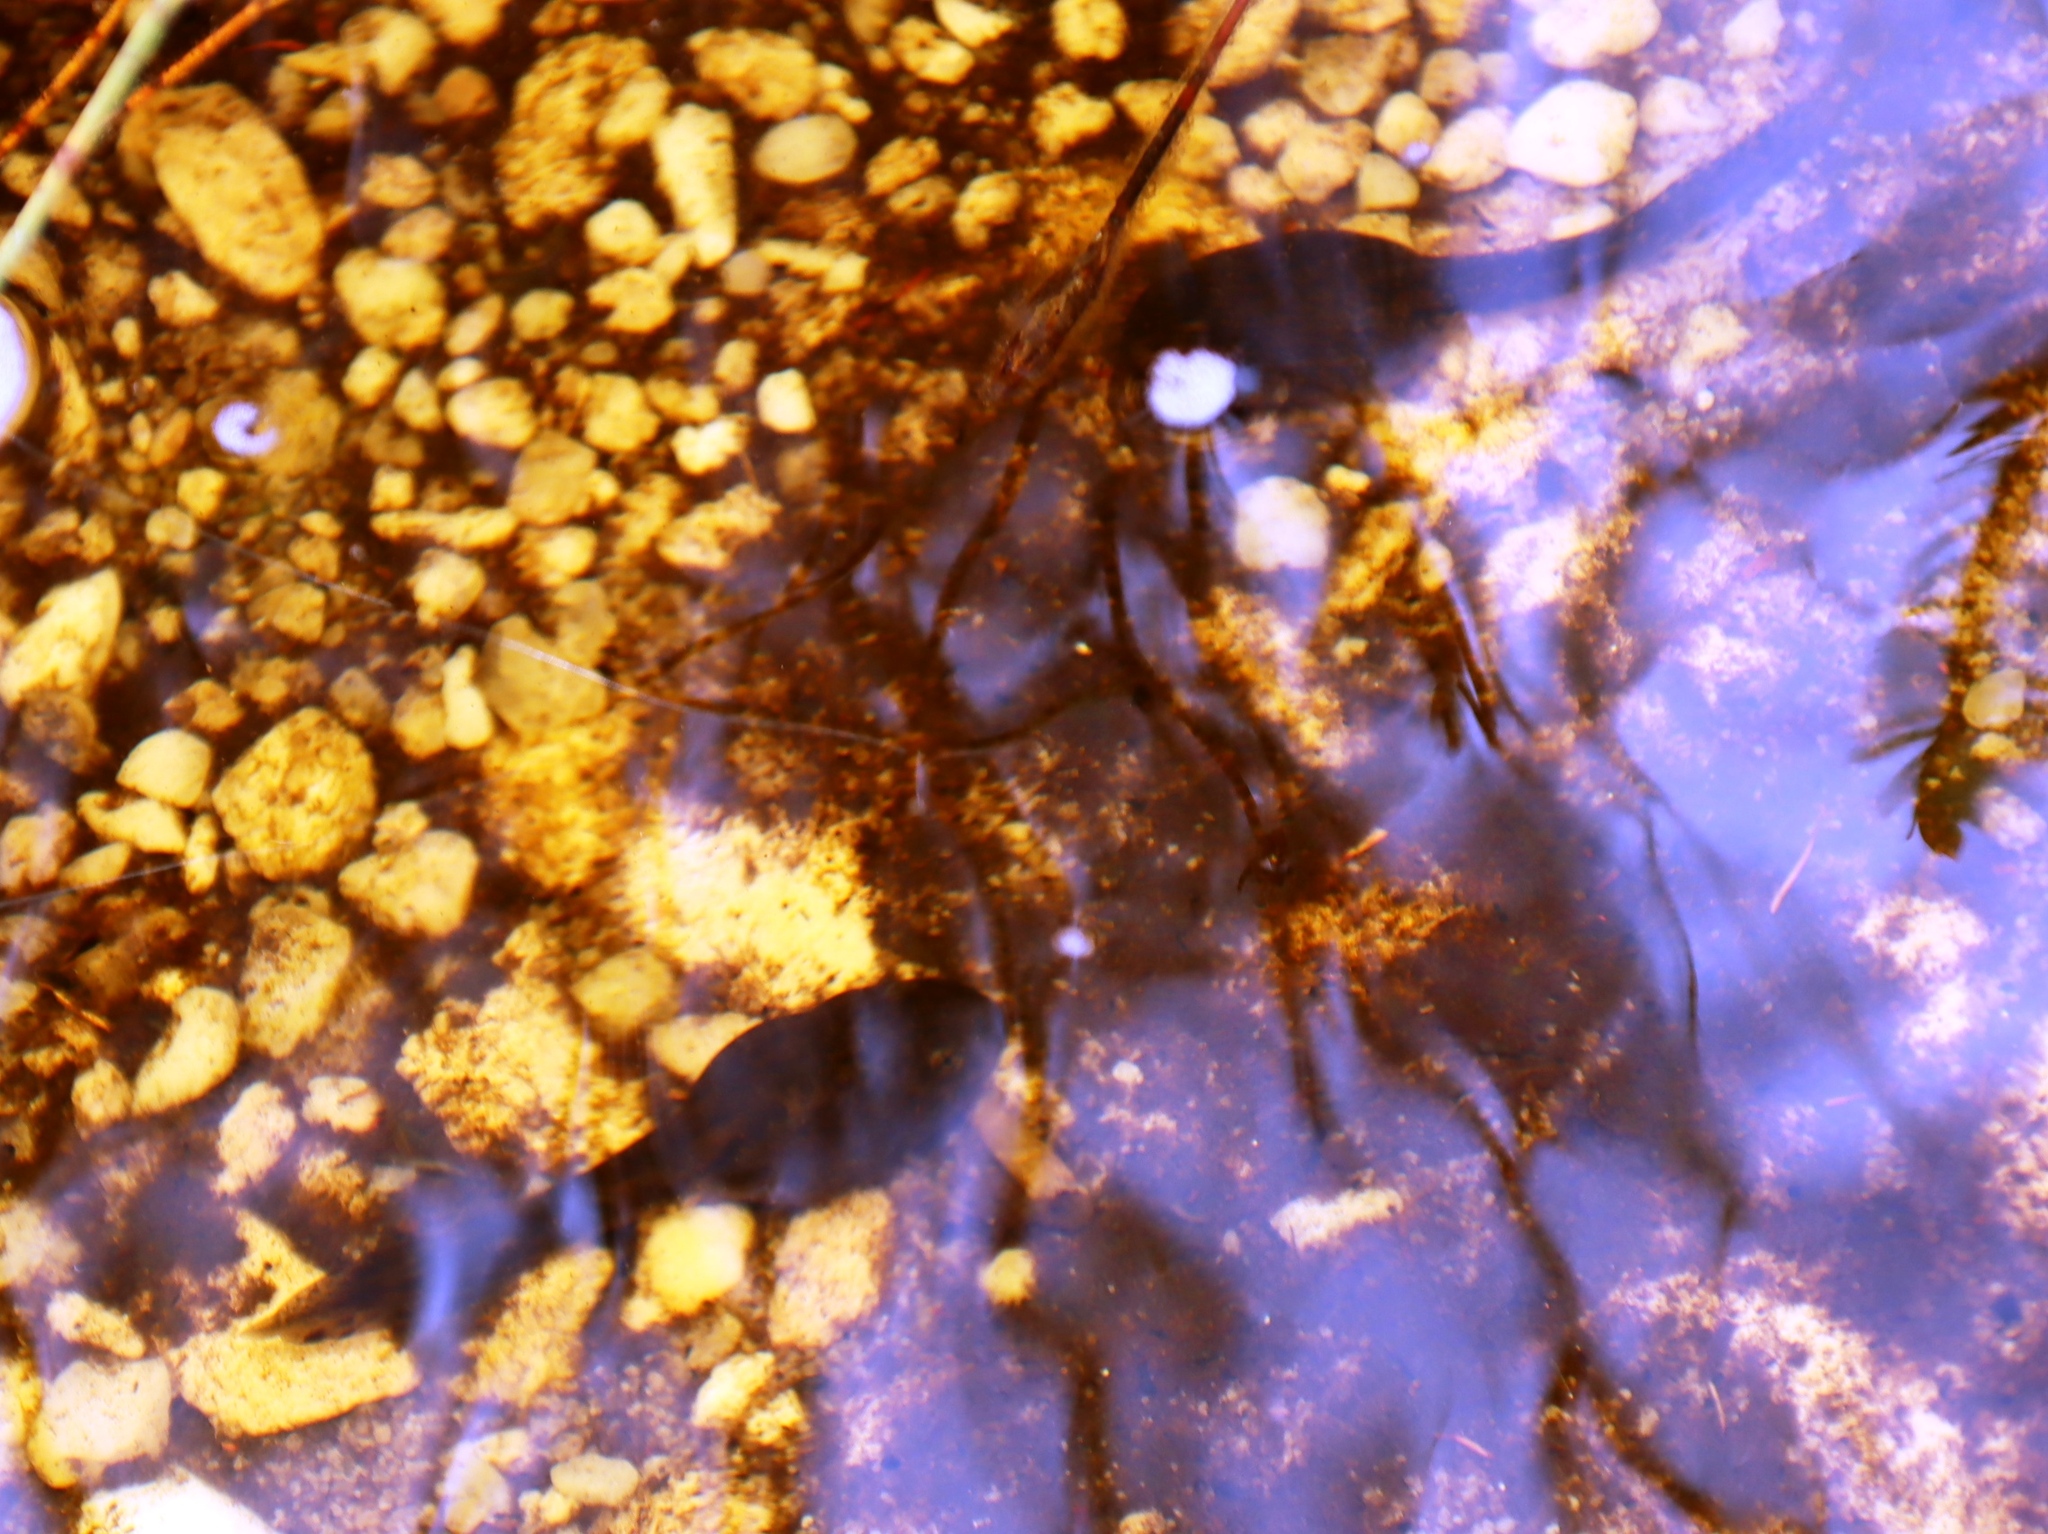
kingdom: Animalia
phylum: Chordata
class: Amphibia
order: Anura
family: Pyxicephalidae
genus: Amietia
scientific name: Amietia fuscigula
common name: Cape rana
